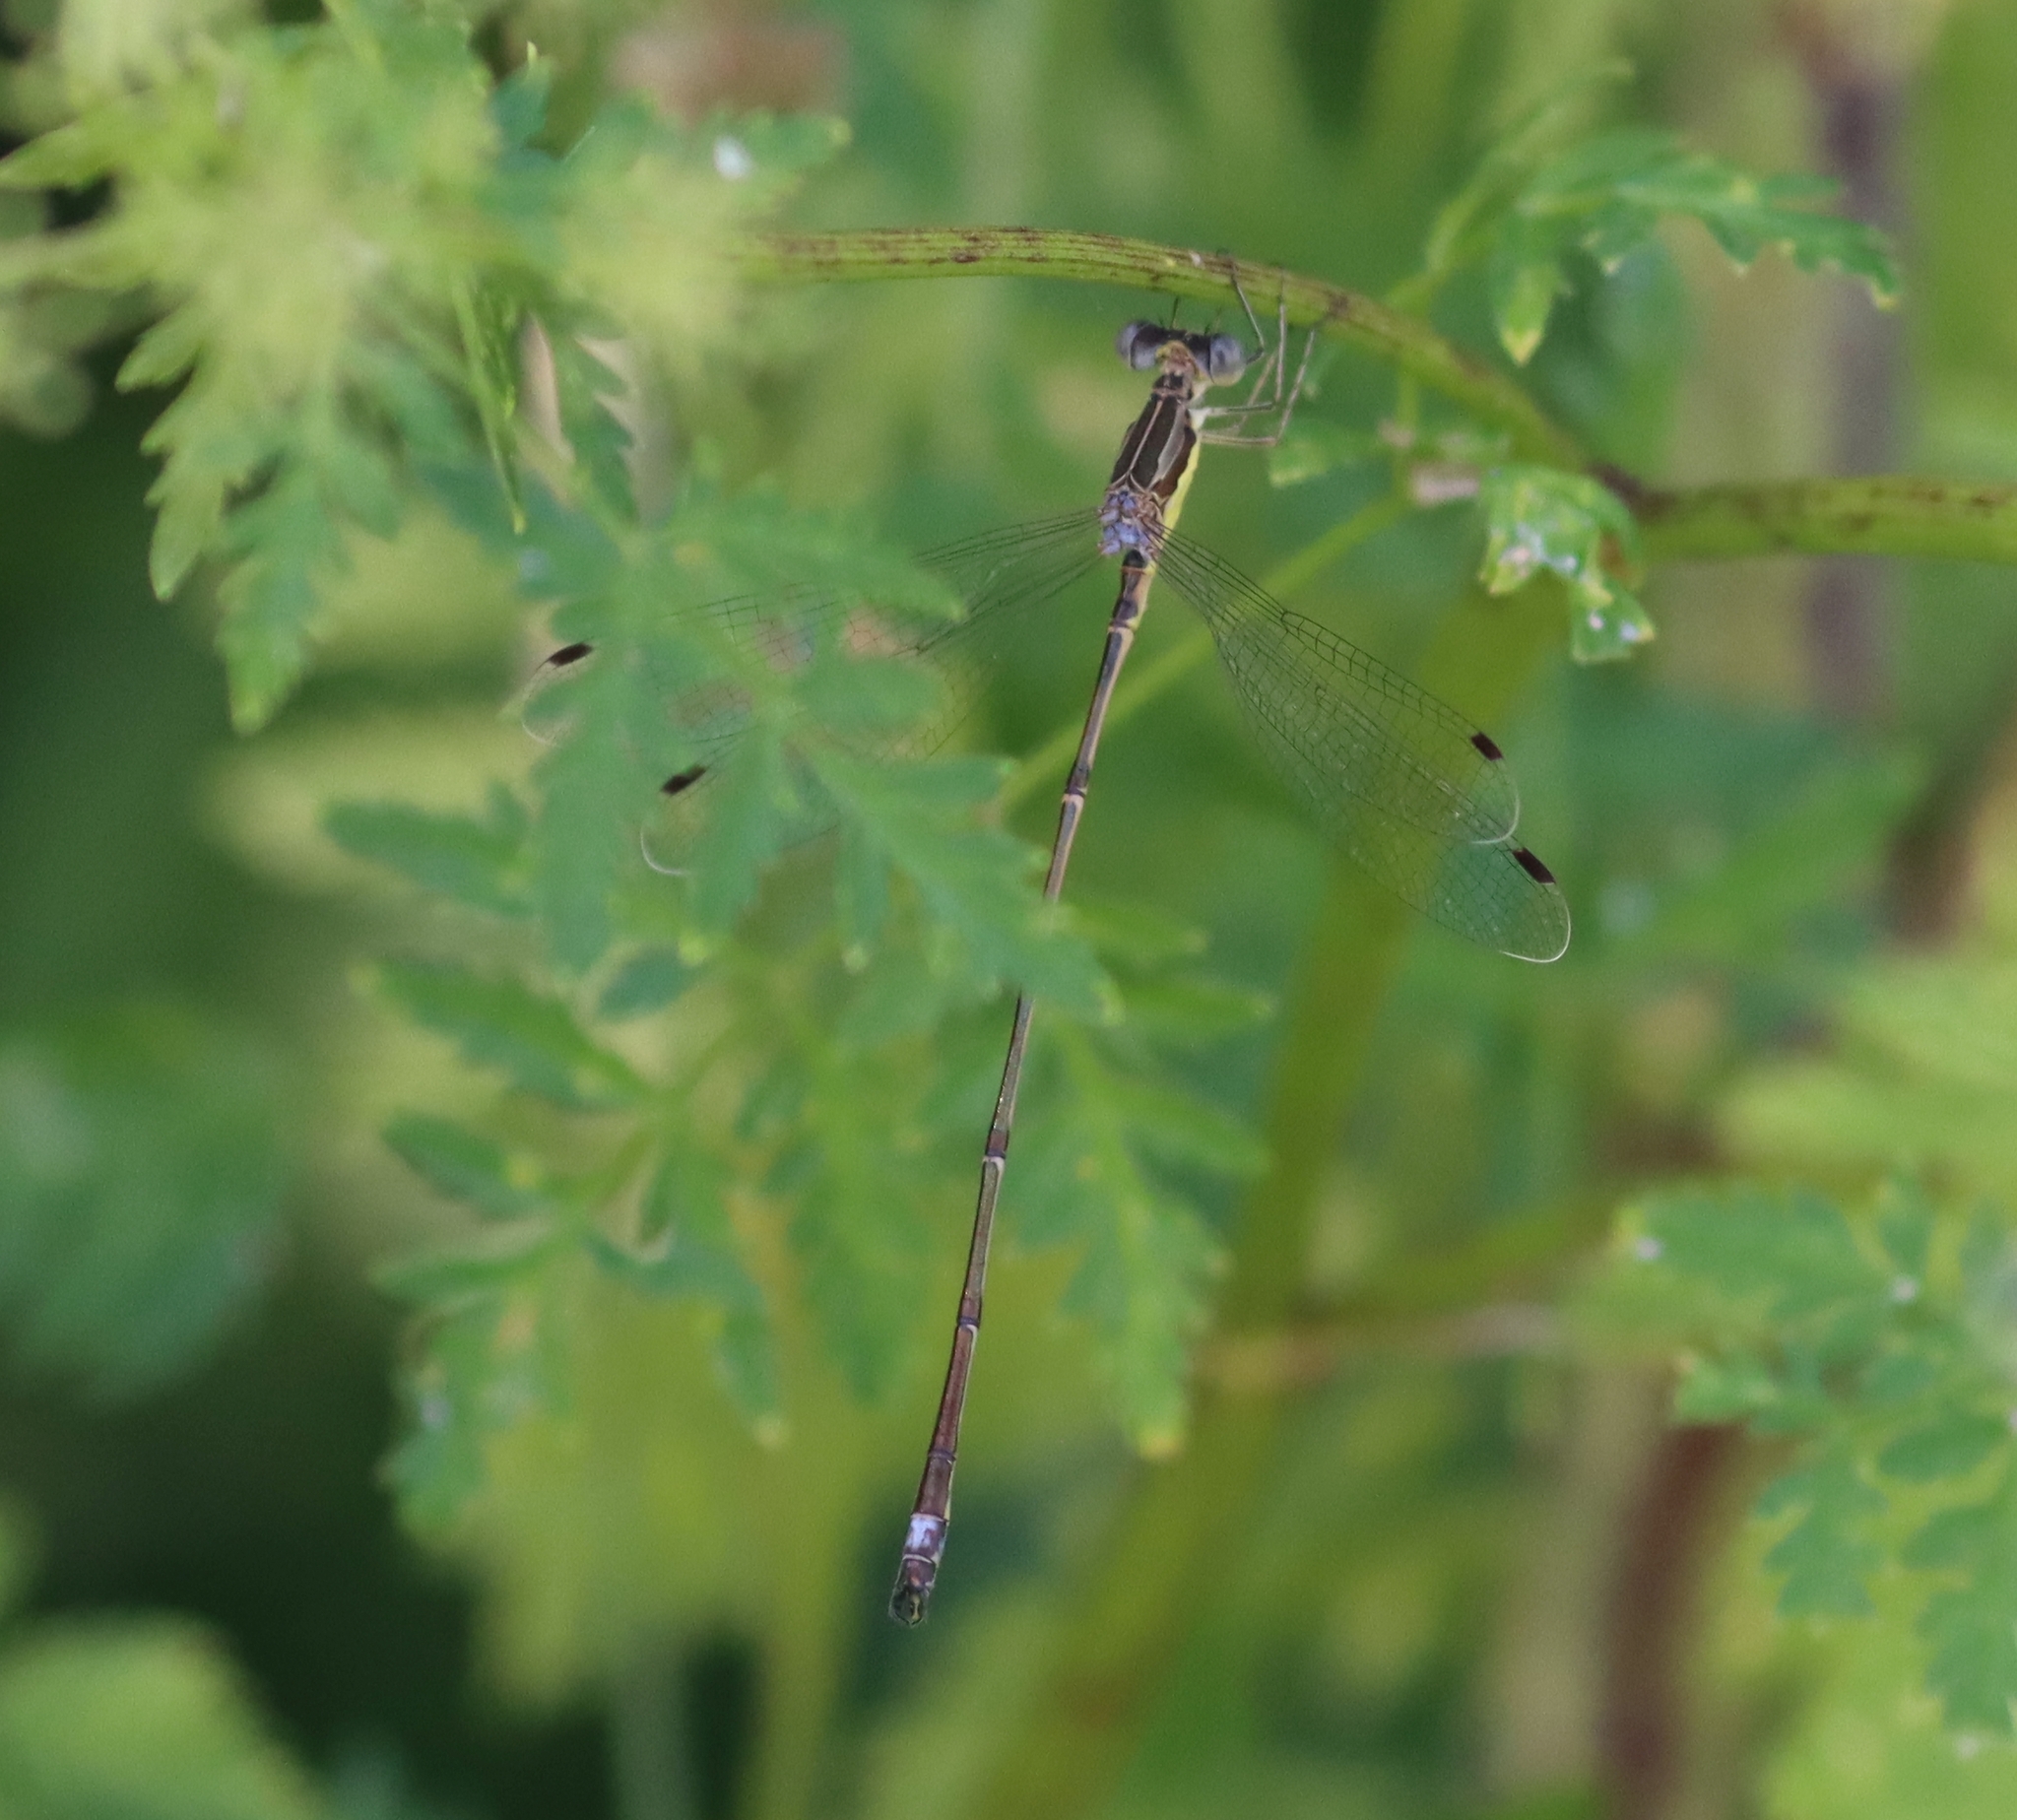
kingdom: Animalia
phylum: Arthropoda
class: Insecta
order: Odonata
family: Lestidae
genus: Lestes
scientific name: Lestes rectangularis
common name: Slender spreadwing
